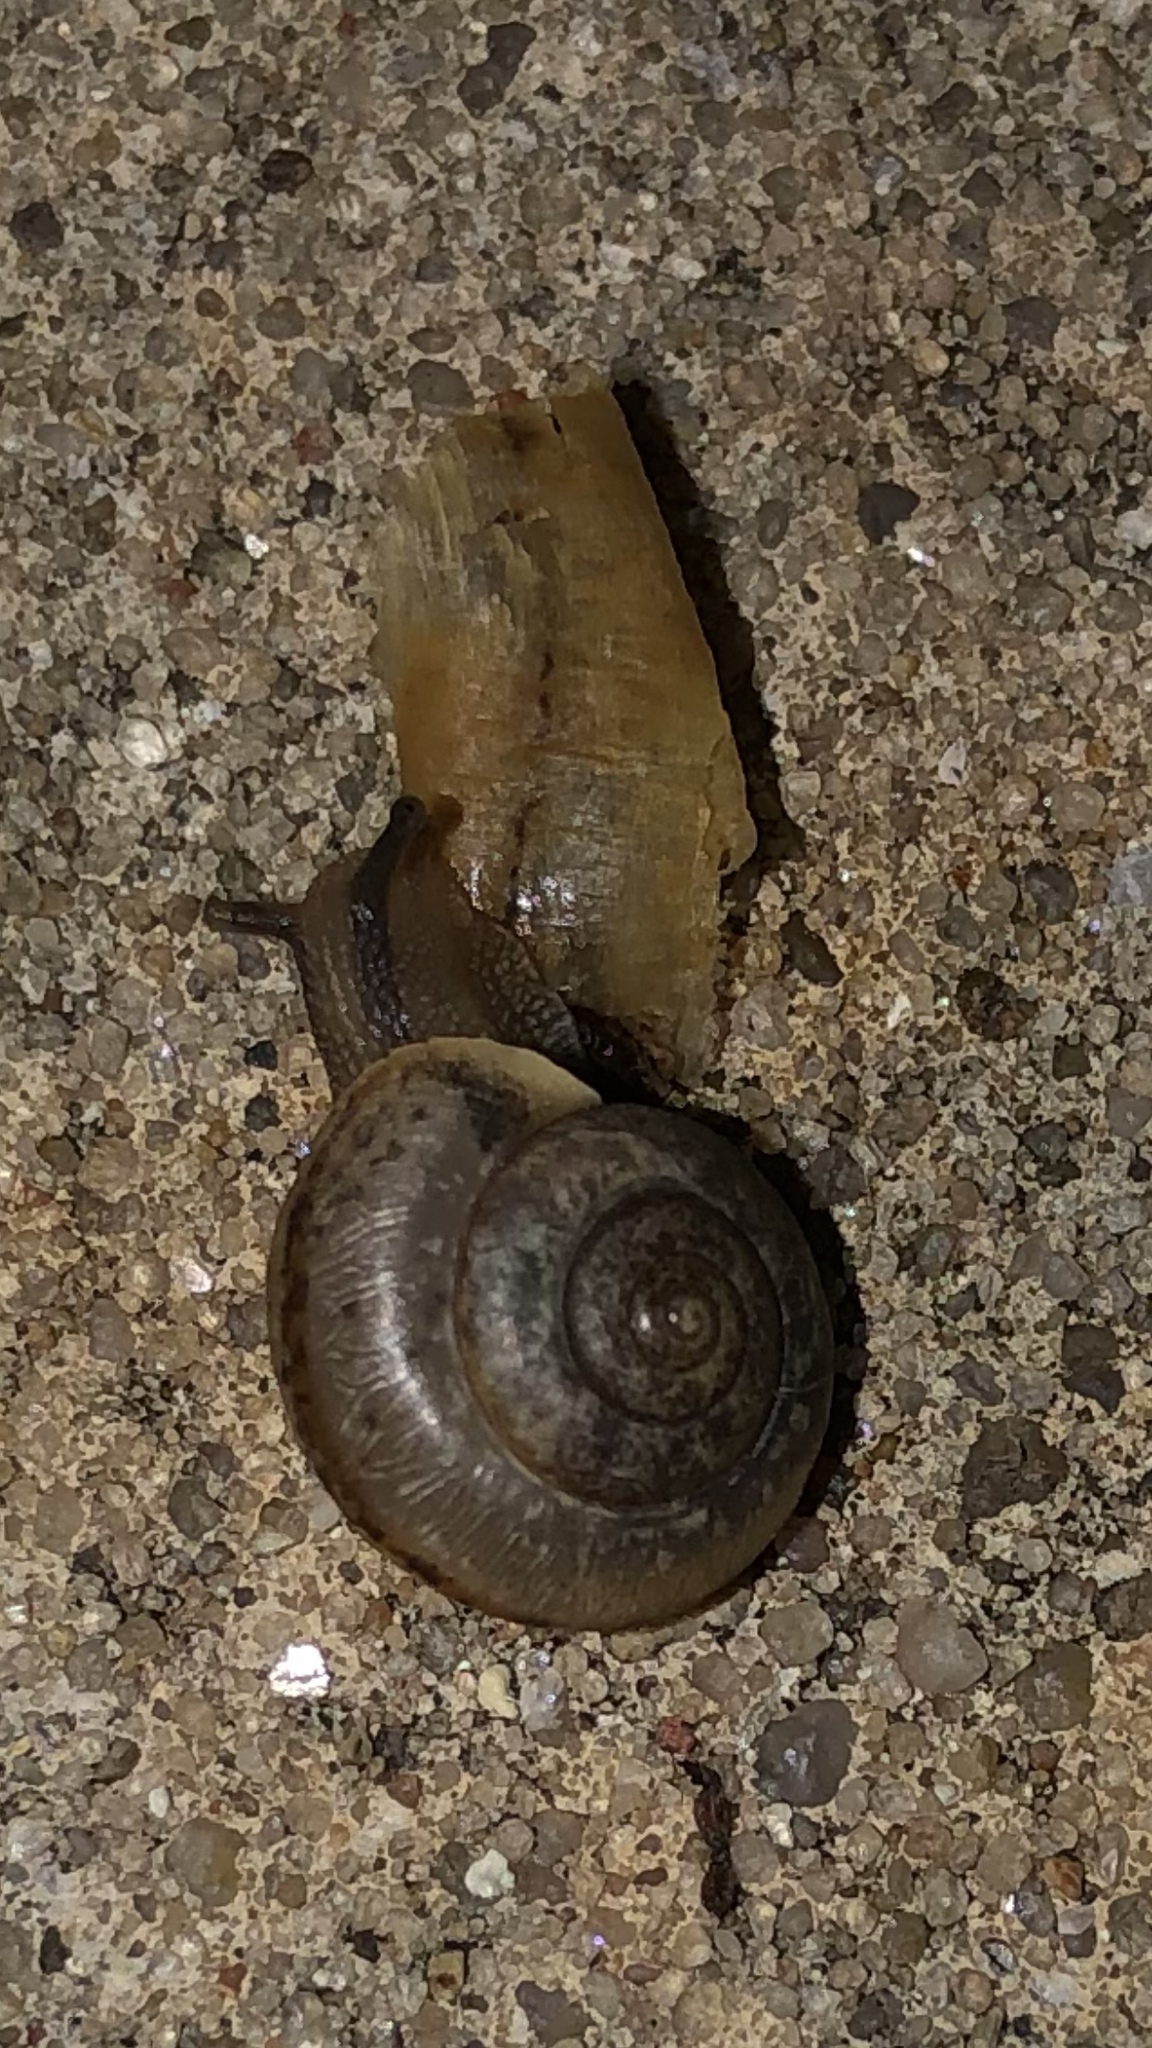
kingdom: Animalia
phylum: Mollusca
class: Gastropoda
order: Stylommatophora
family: Camaenidae
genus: Bradybaena
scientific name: Bradybaena similaris
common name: Asian trampsnail
